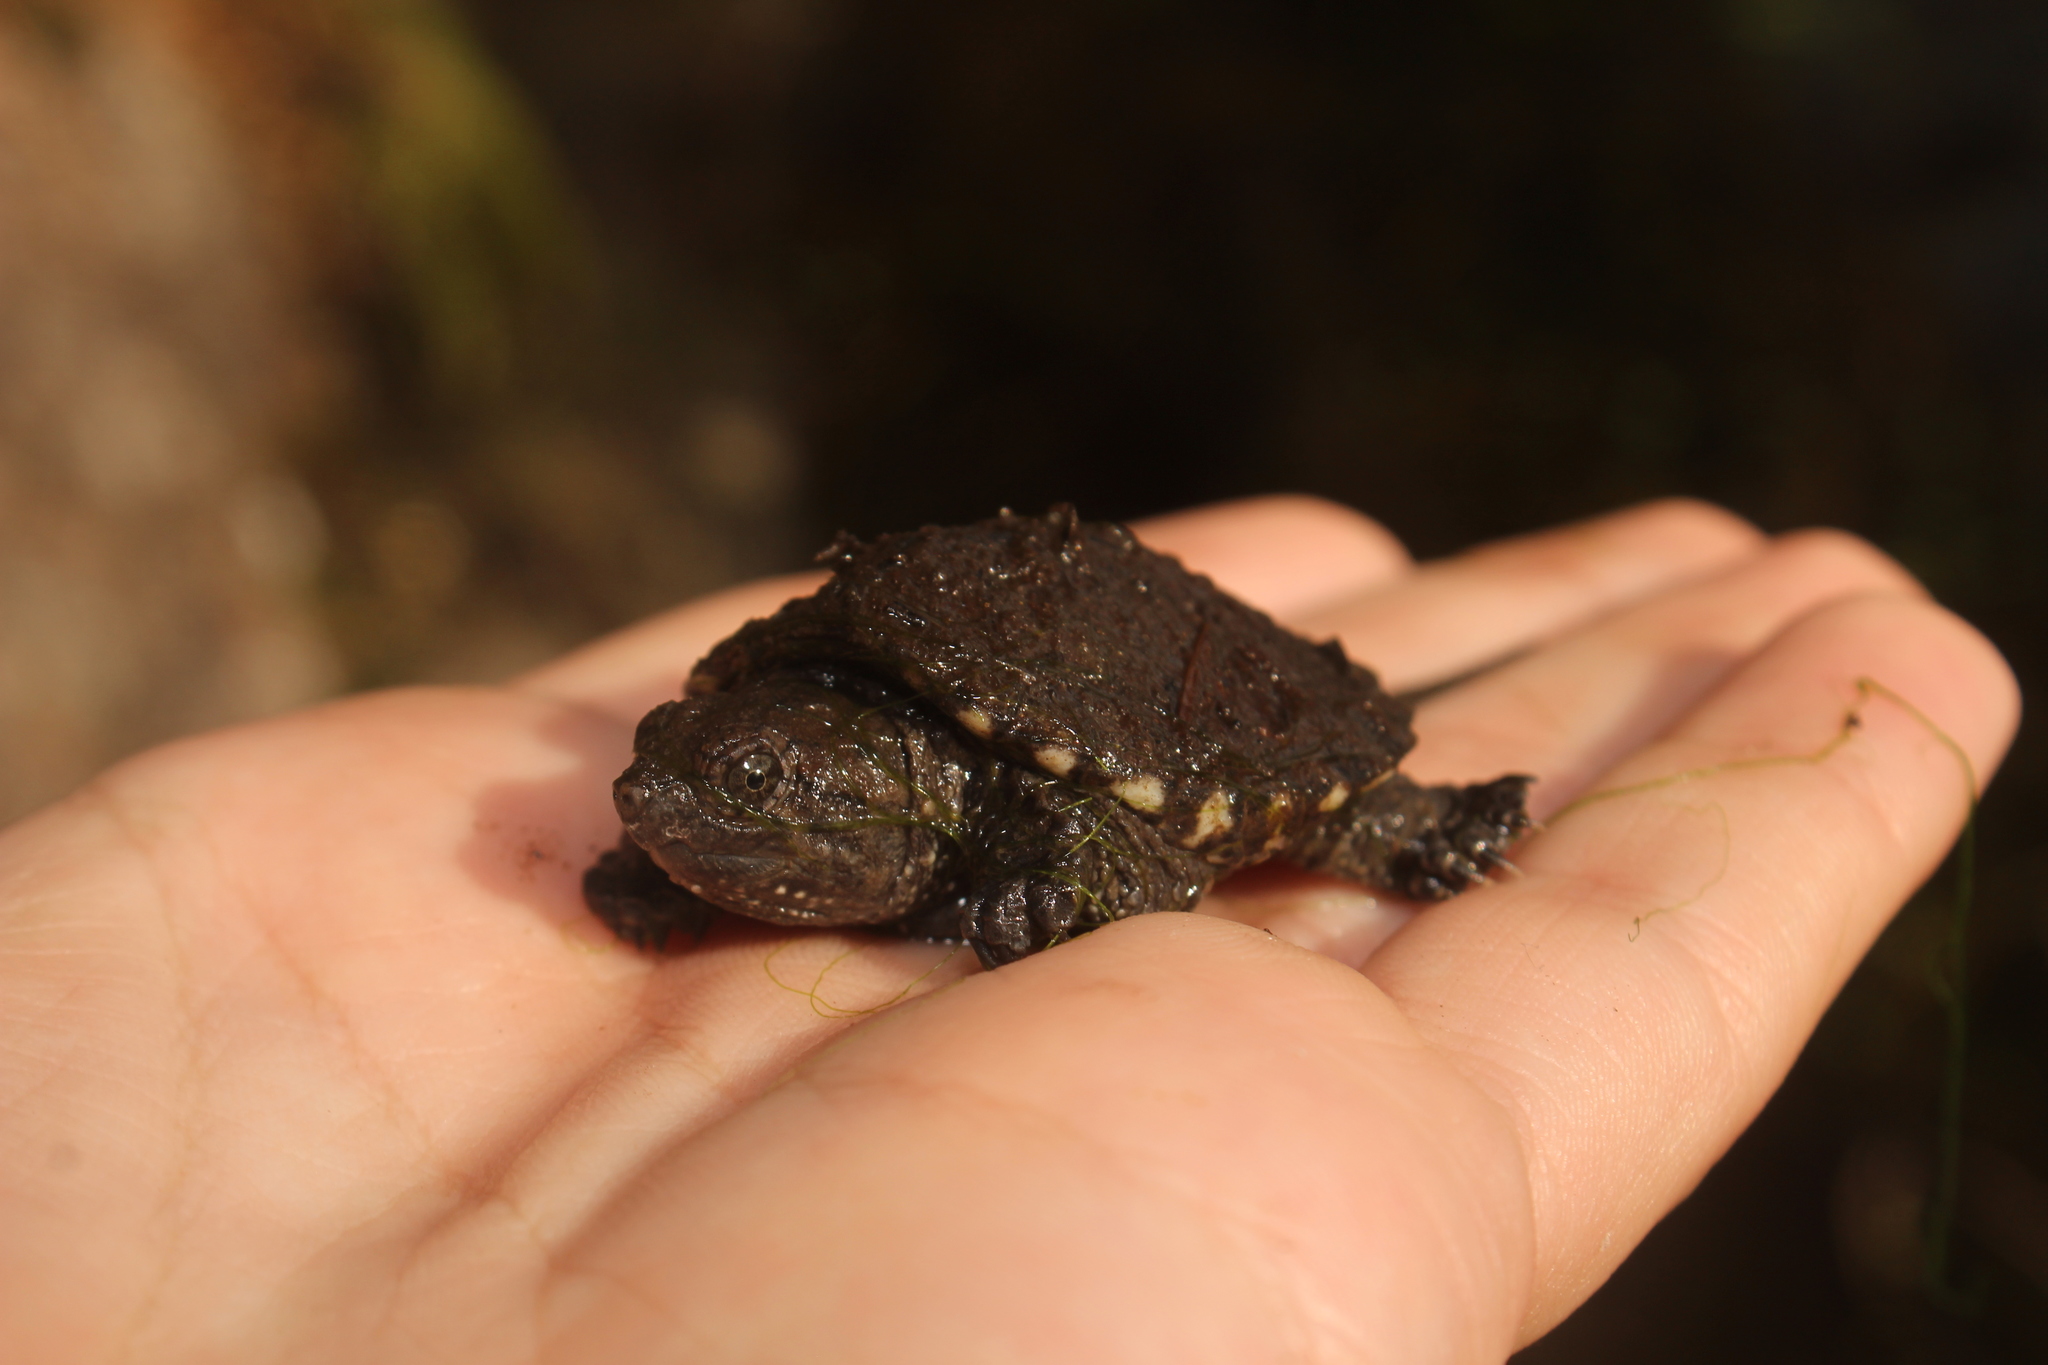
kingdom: Animalia
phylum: Chordata
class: Testudines
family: Chelydridae
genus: Chelydra
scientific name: Chelydra serpentina
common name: Common snapping turtle
